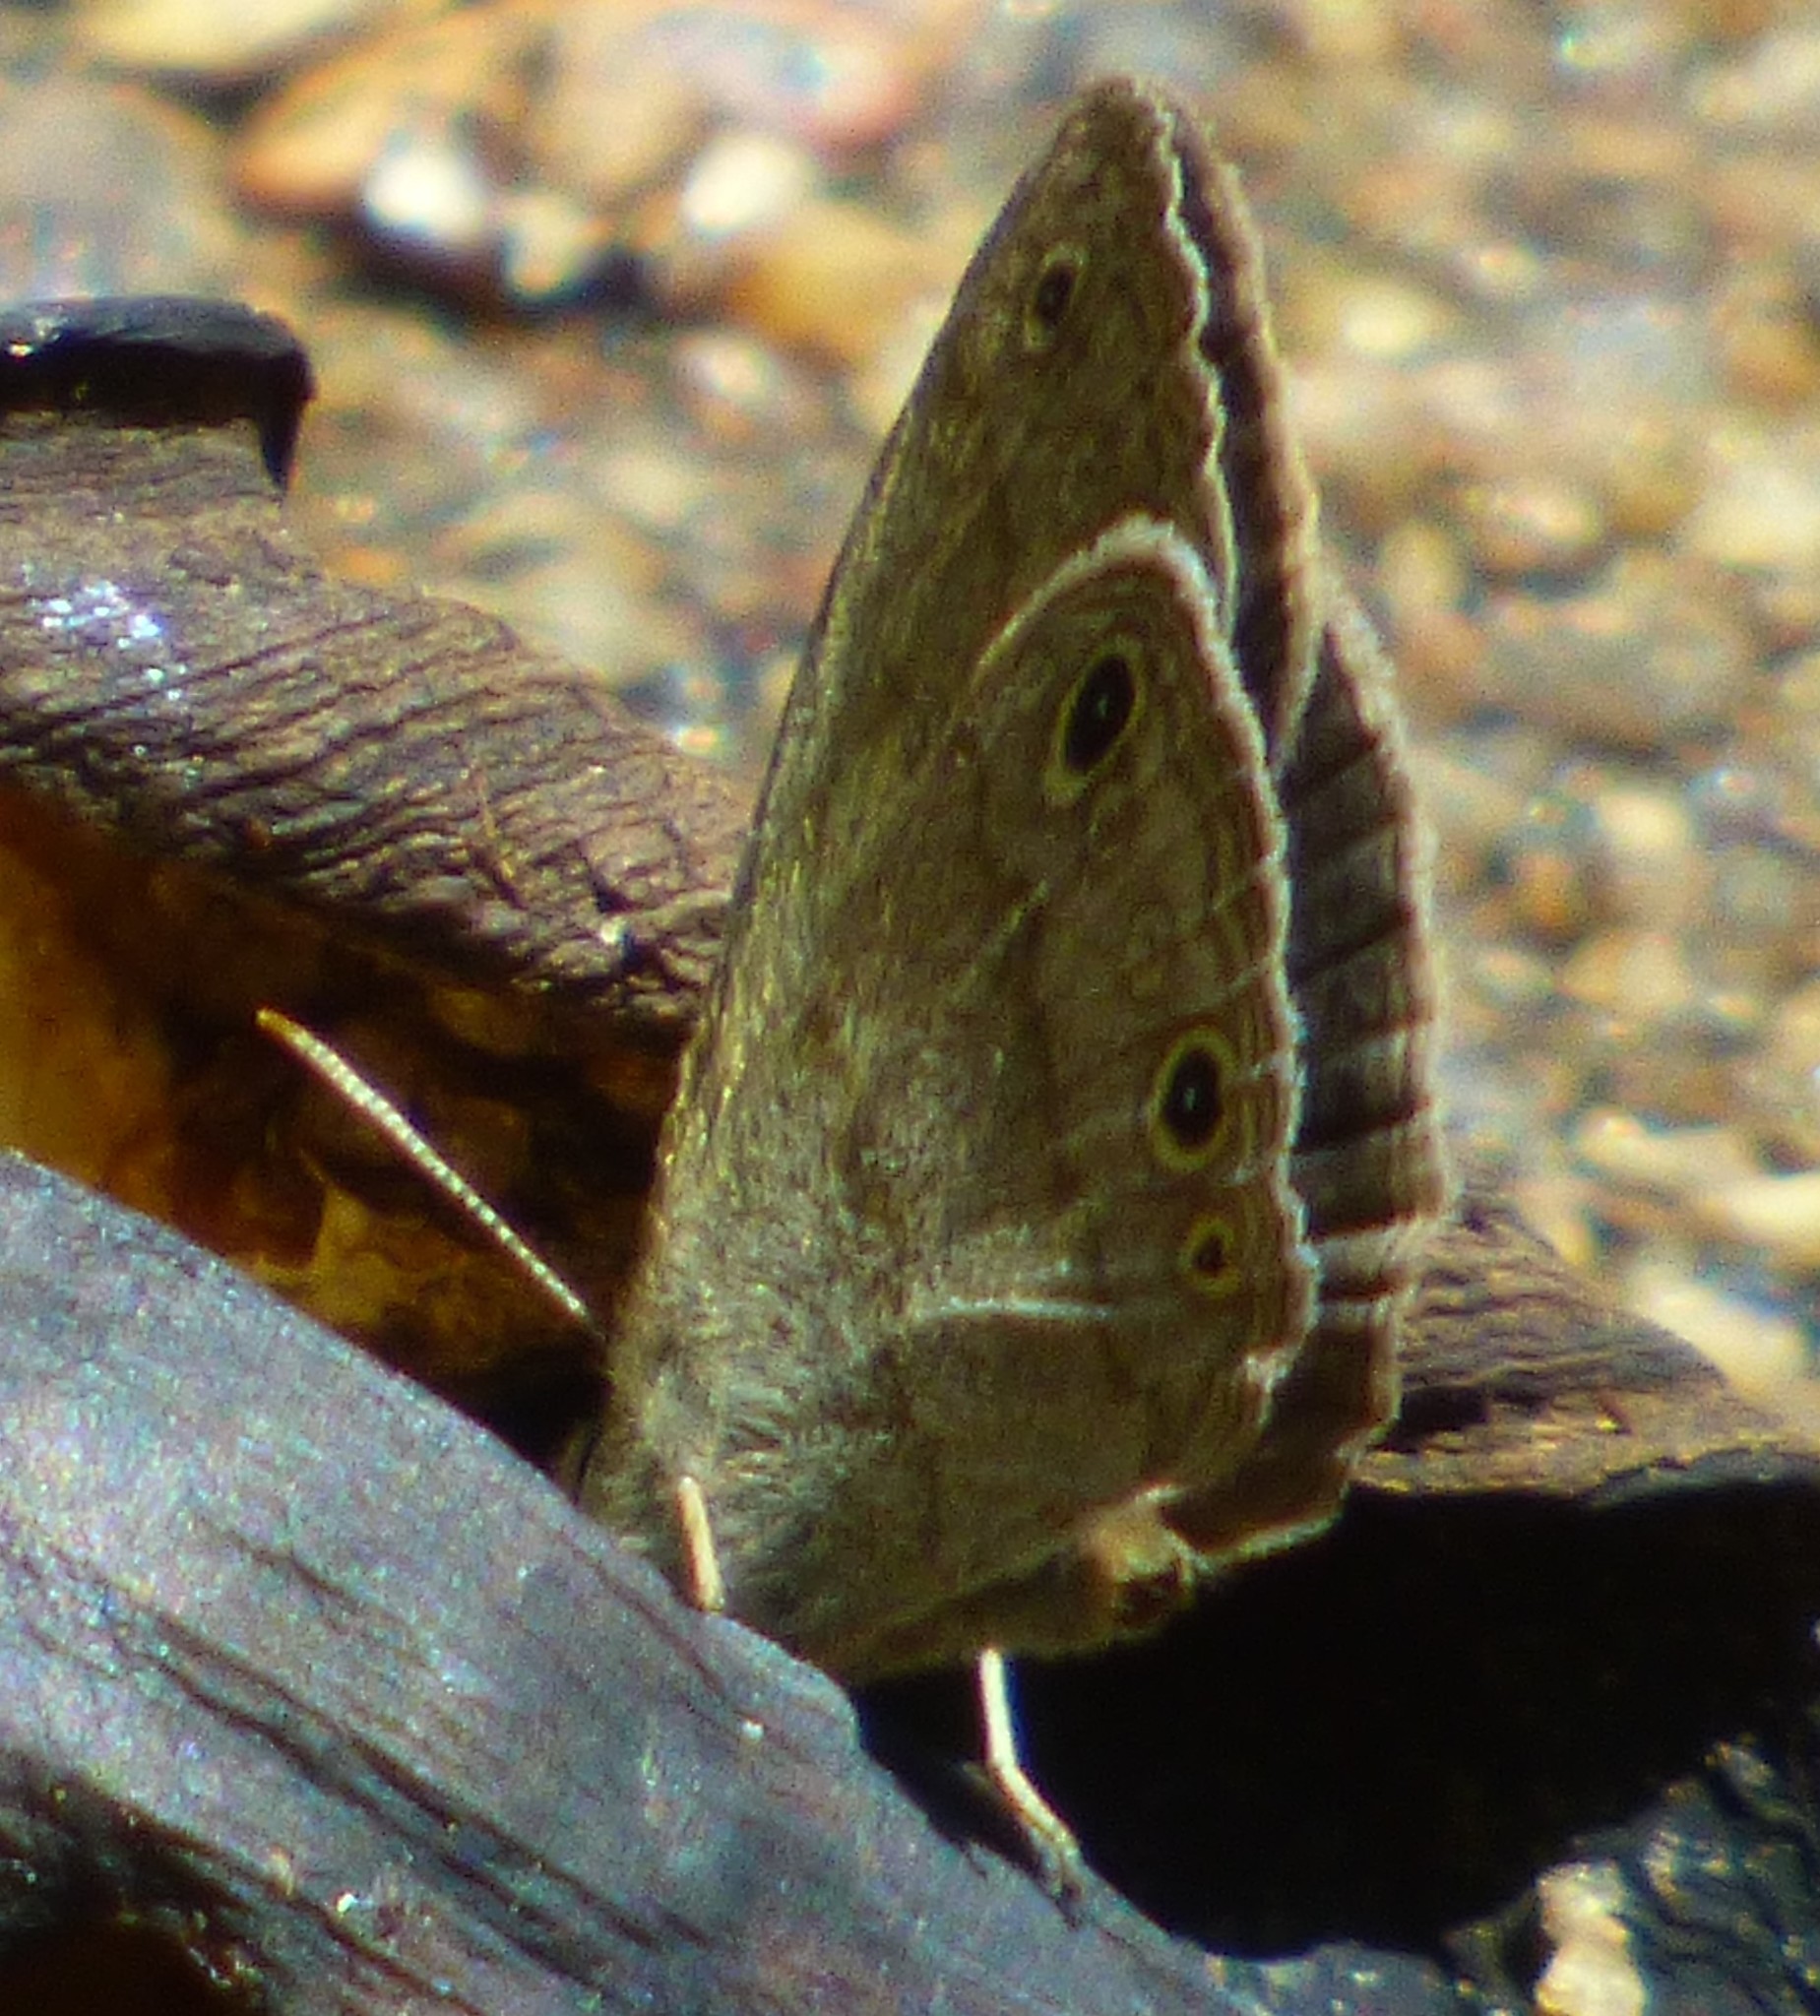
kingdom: Animalia
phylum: Arthropoda
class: Insecta
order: Lepidoptera
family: Nymphalidae
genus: Hermeuptychia
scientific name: Hermeuptychia hermes
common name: Hermes satyr
